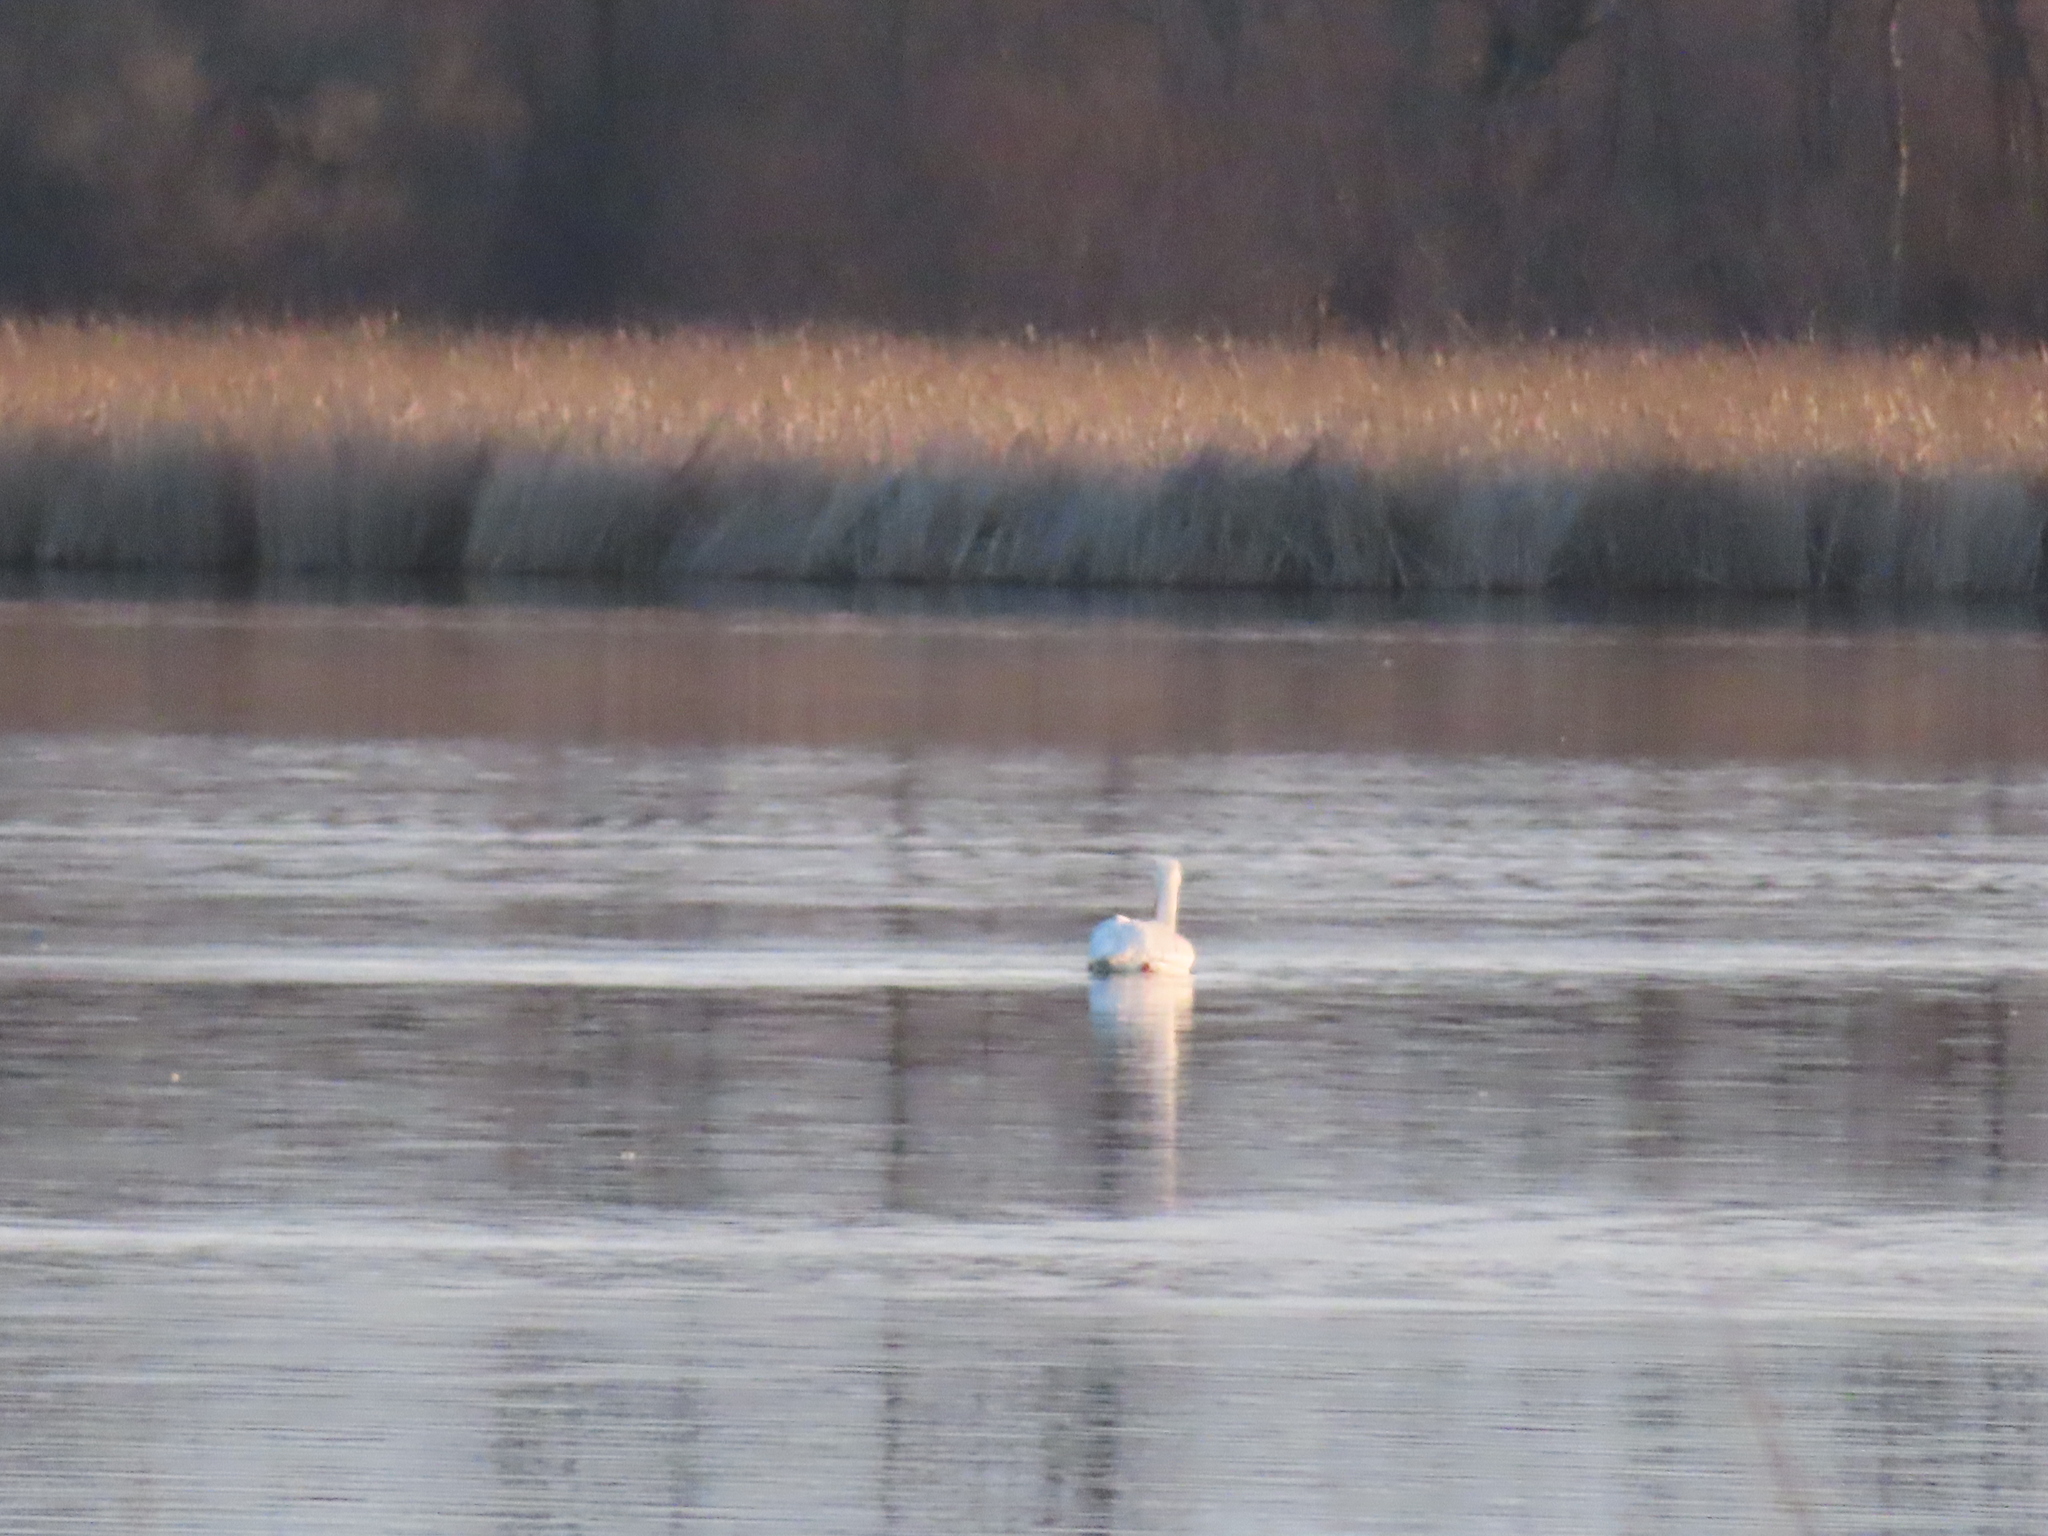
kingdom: Animalia
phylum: Chordata
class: Aves
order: Pelecaniformes
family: Pelecanidae
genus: Pelecanus
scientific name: Pelecanus erythrorhynchos
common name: American white pelican
